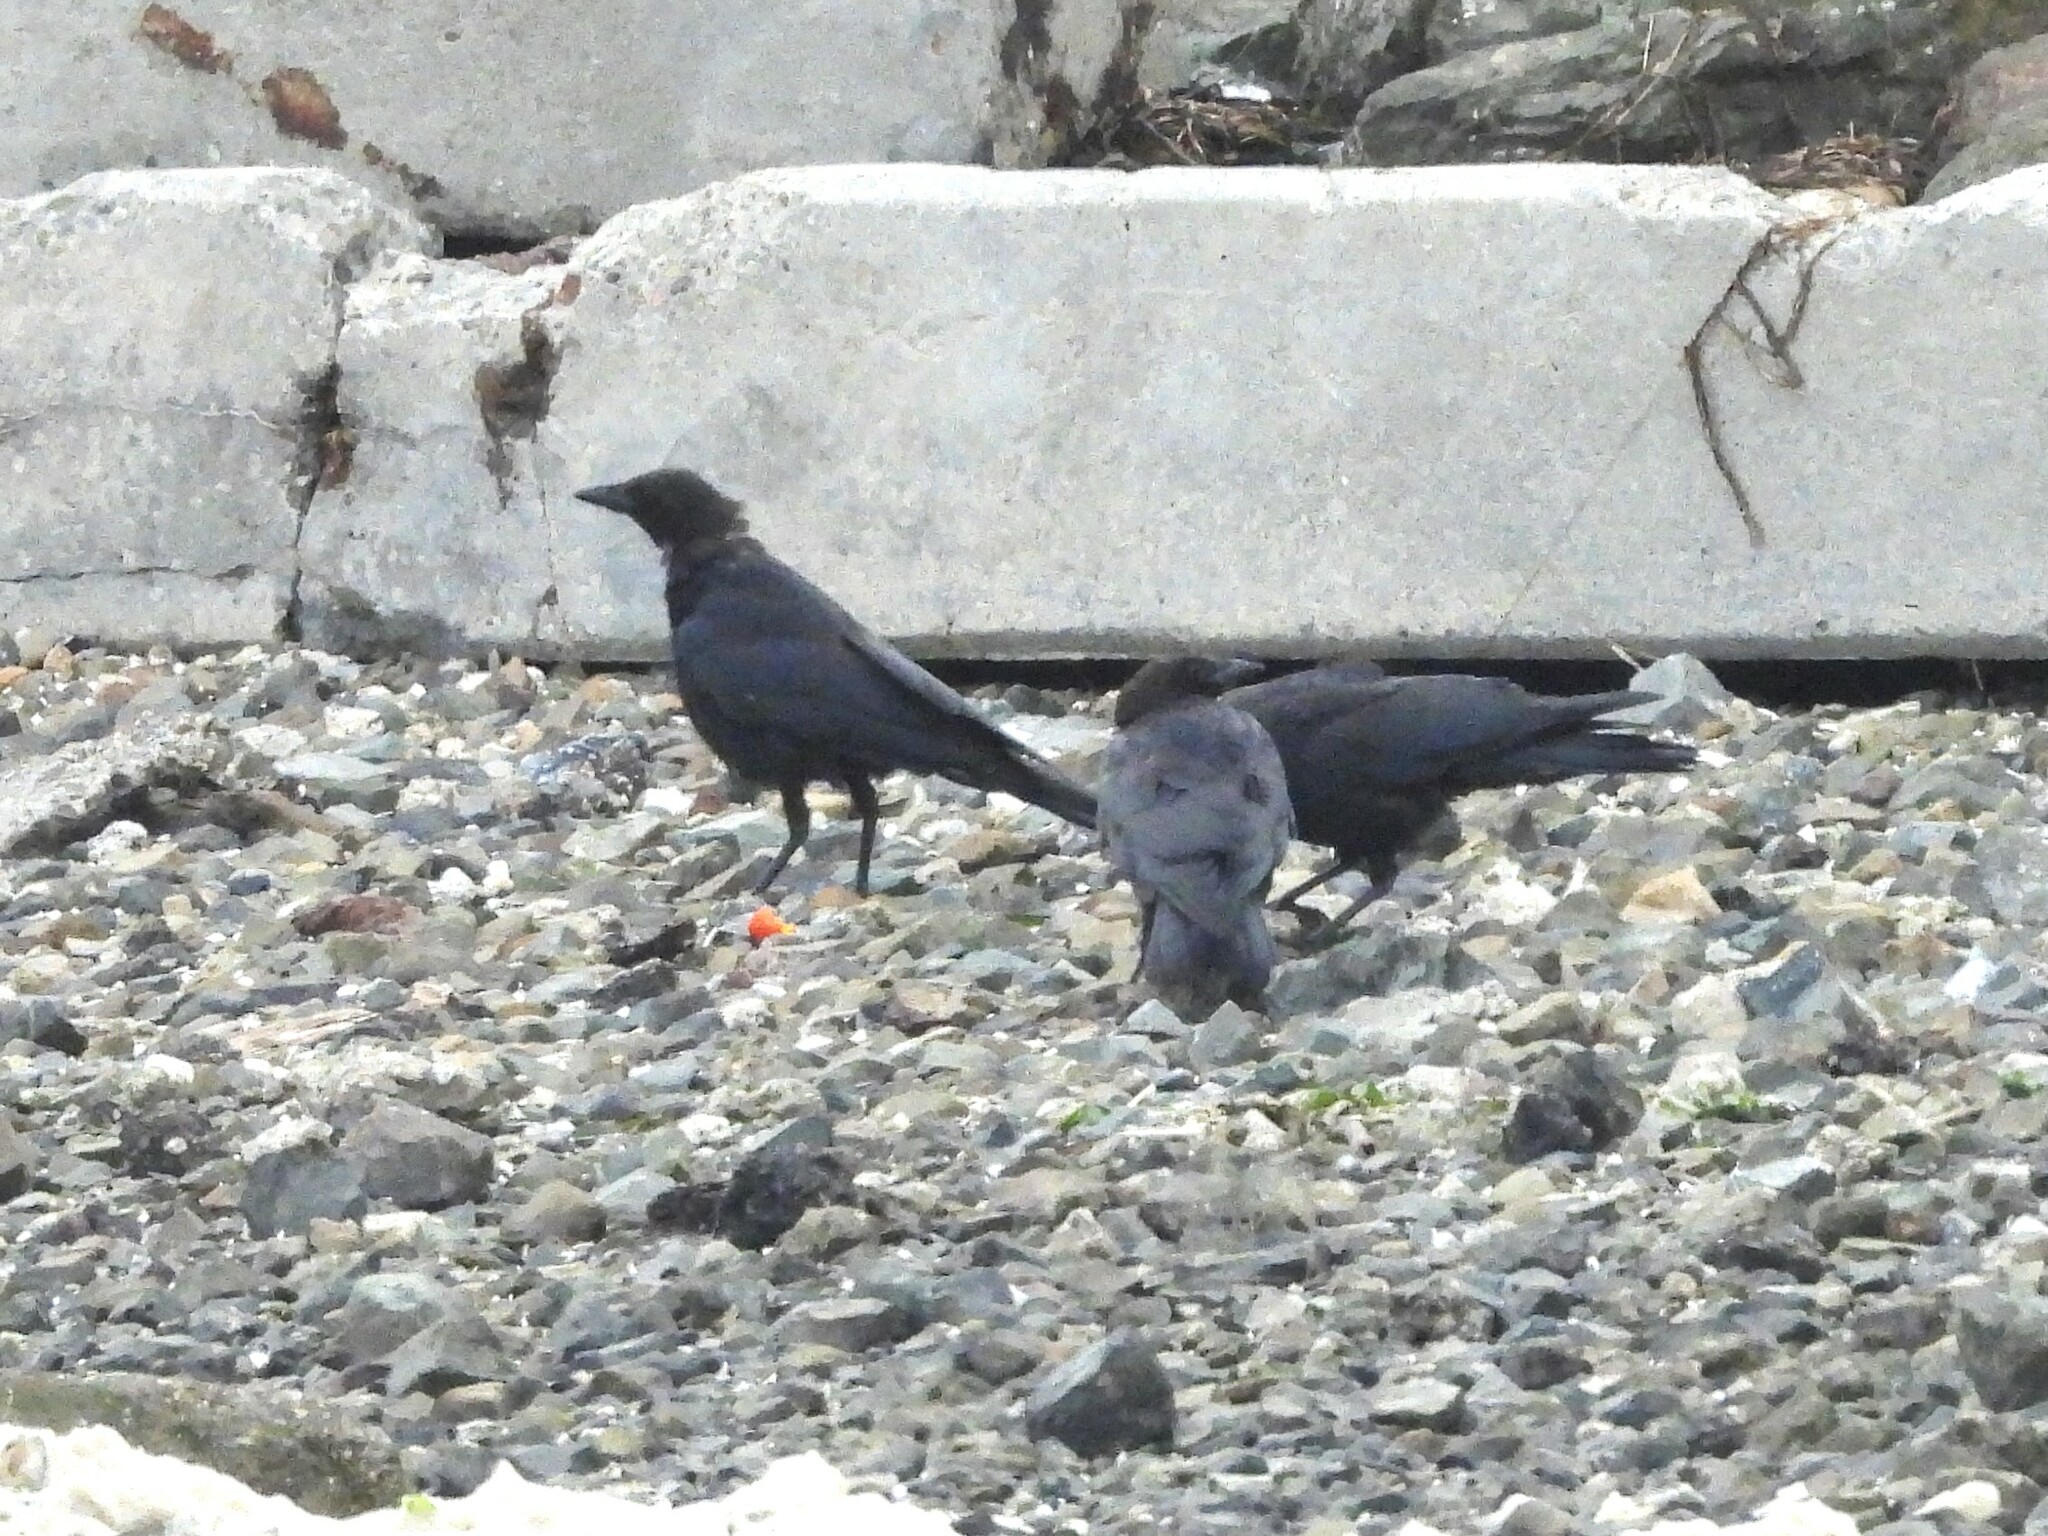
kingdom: Animalia
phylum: Chordata
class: Aves
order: Passeriformes
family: Corvidae
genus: Corvus
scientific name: Corvus brachyrhynchos
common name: American crow
